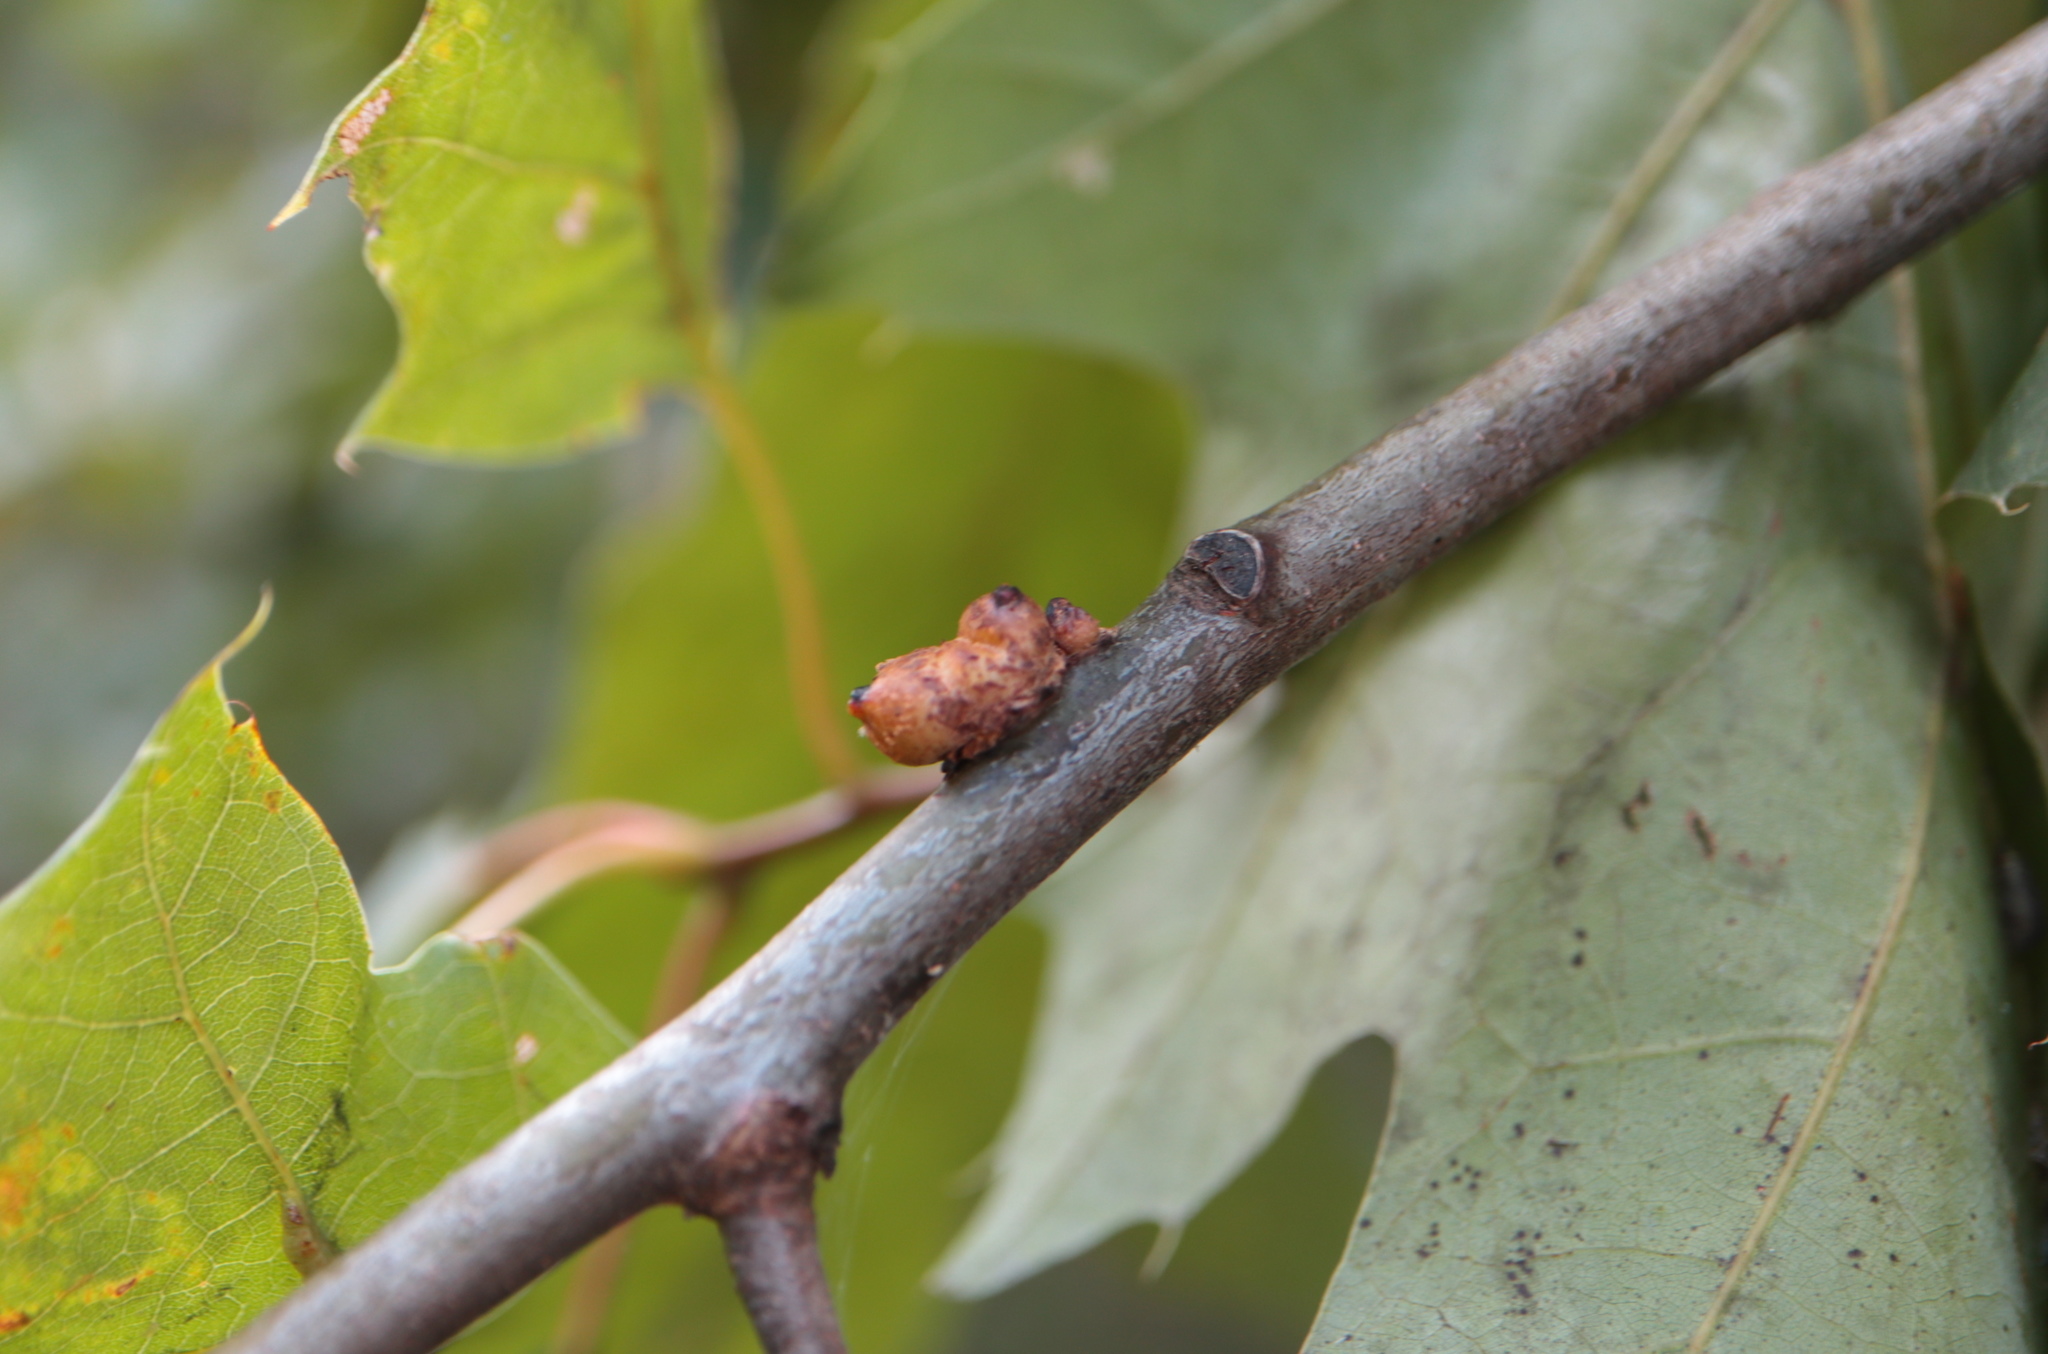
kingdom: Animalia
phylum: Arthropoda
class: Insecta
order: Hymenoptera
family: Cynipidae
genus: Callirhytis
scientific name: Callirhytis
